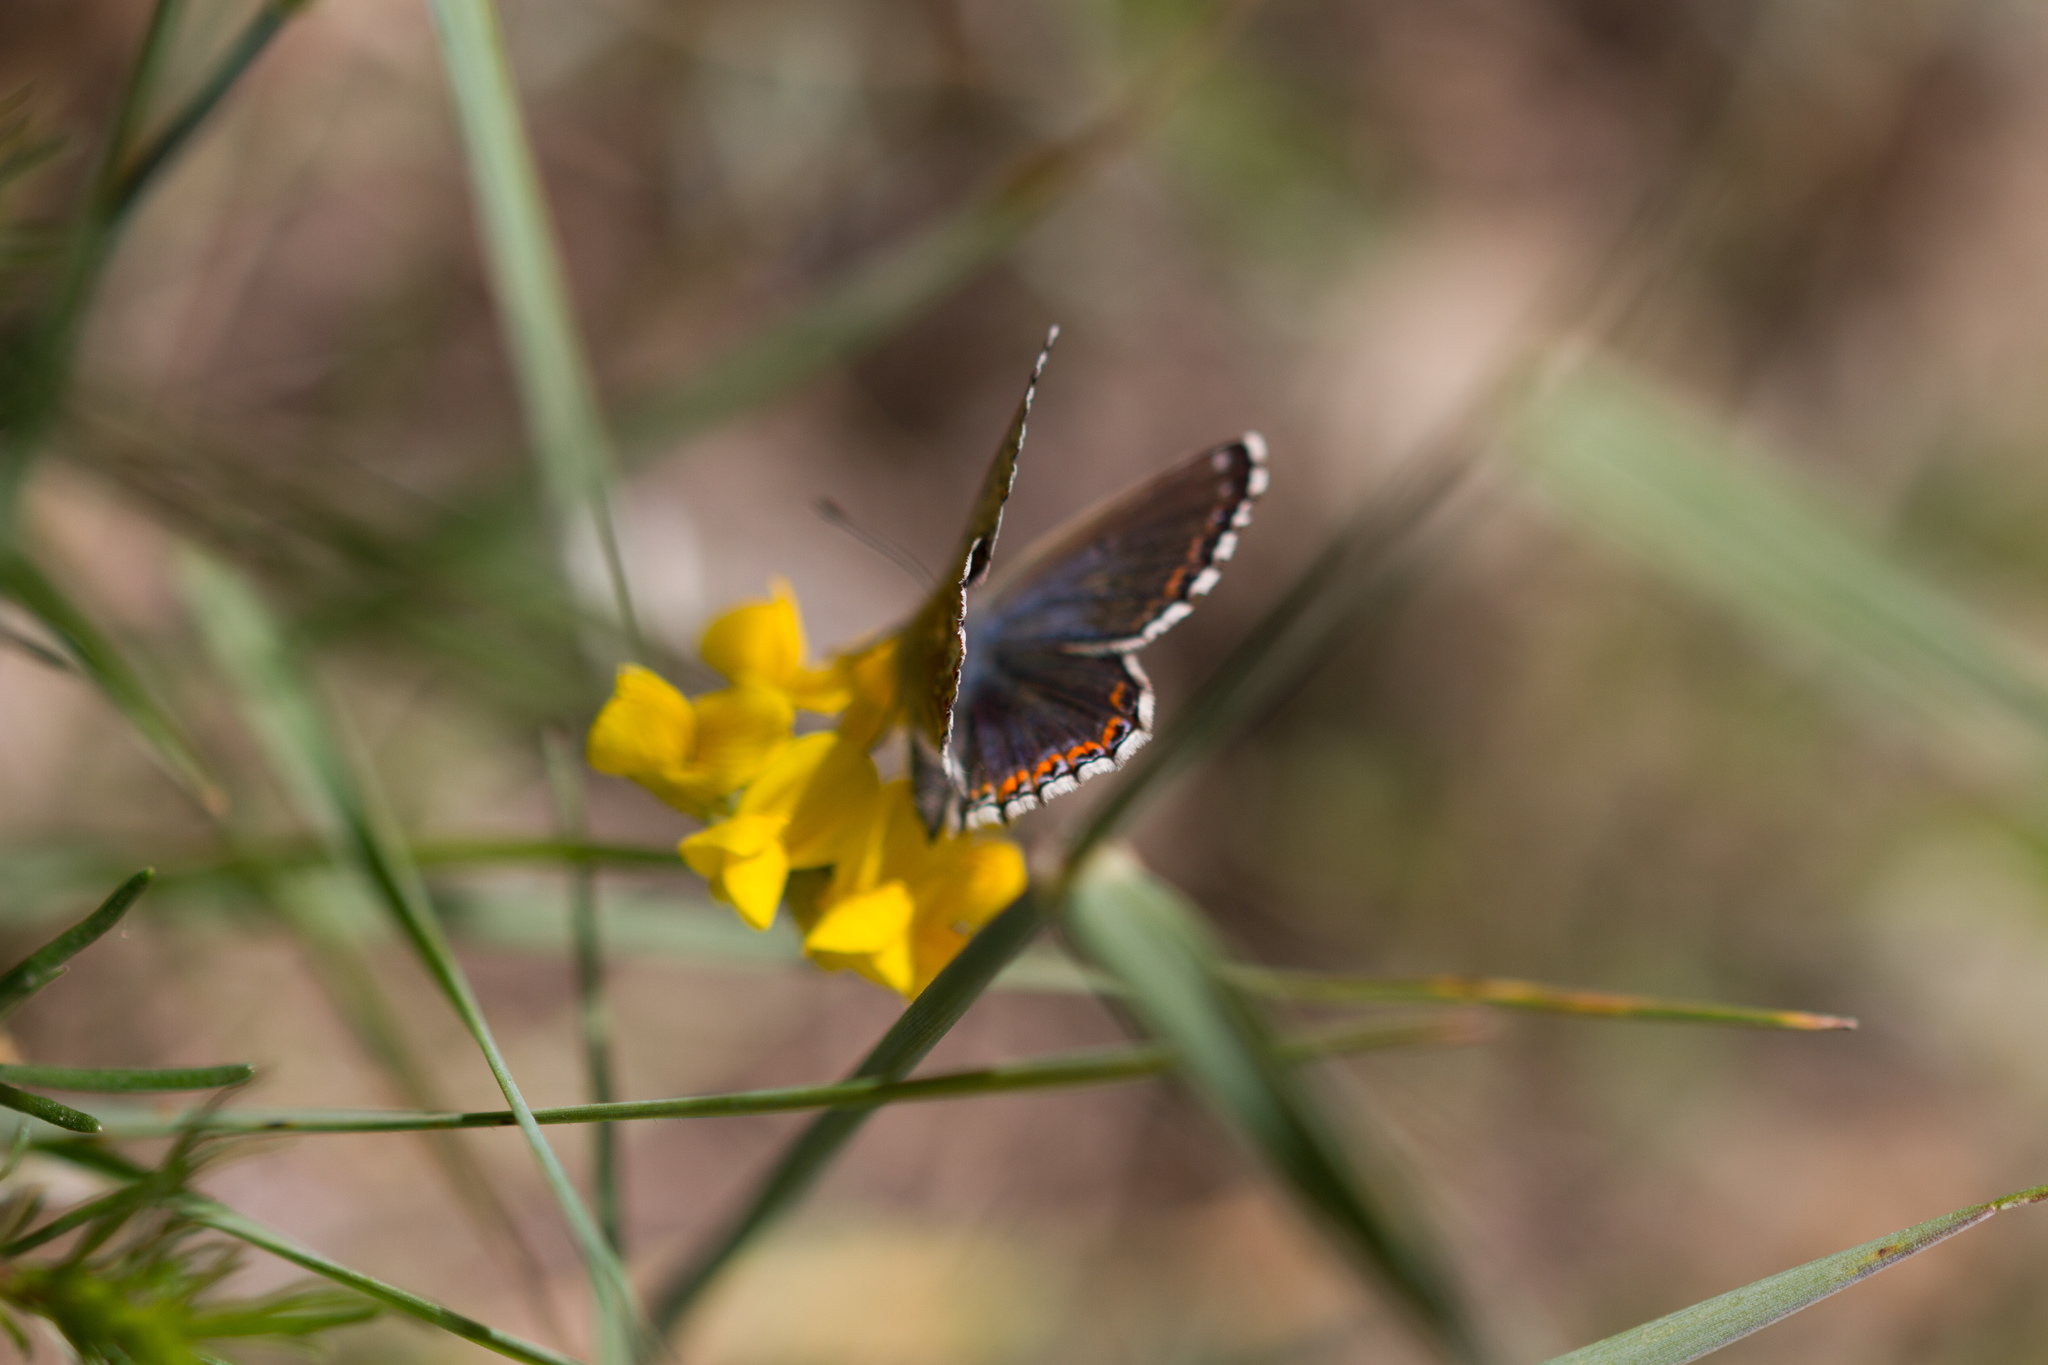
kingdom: Animalia
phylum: Arthropoda
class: Insecta
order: Lepidoptera
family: Lycaenidae
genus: Lysandra
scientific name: Lysandra bellargus
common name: Adonis blue
